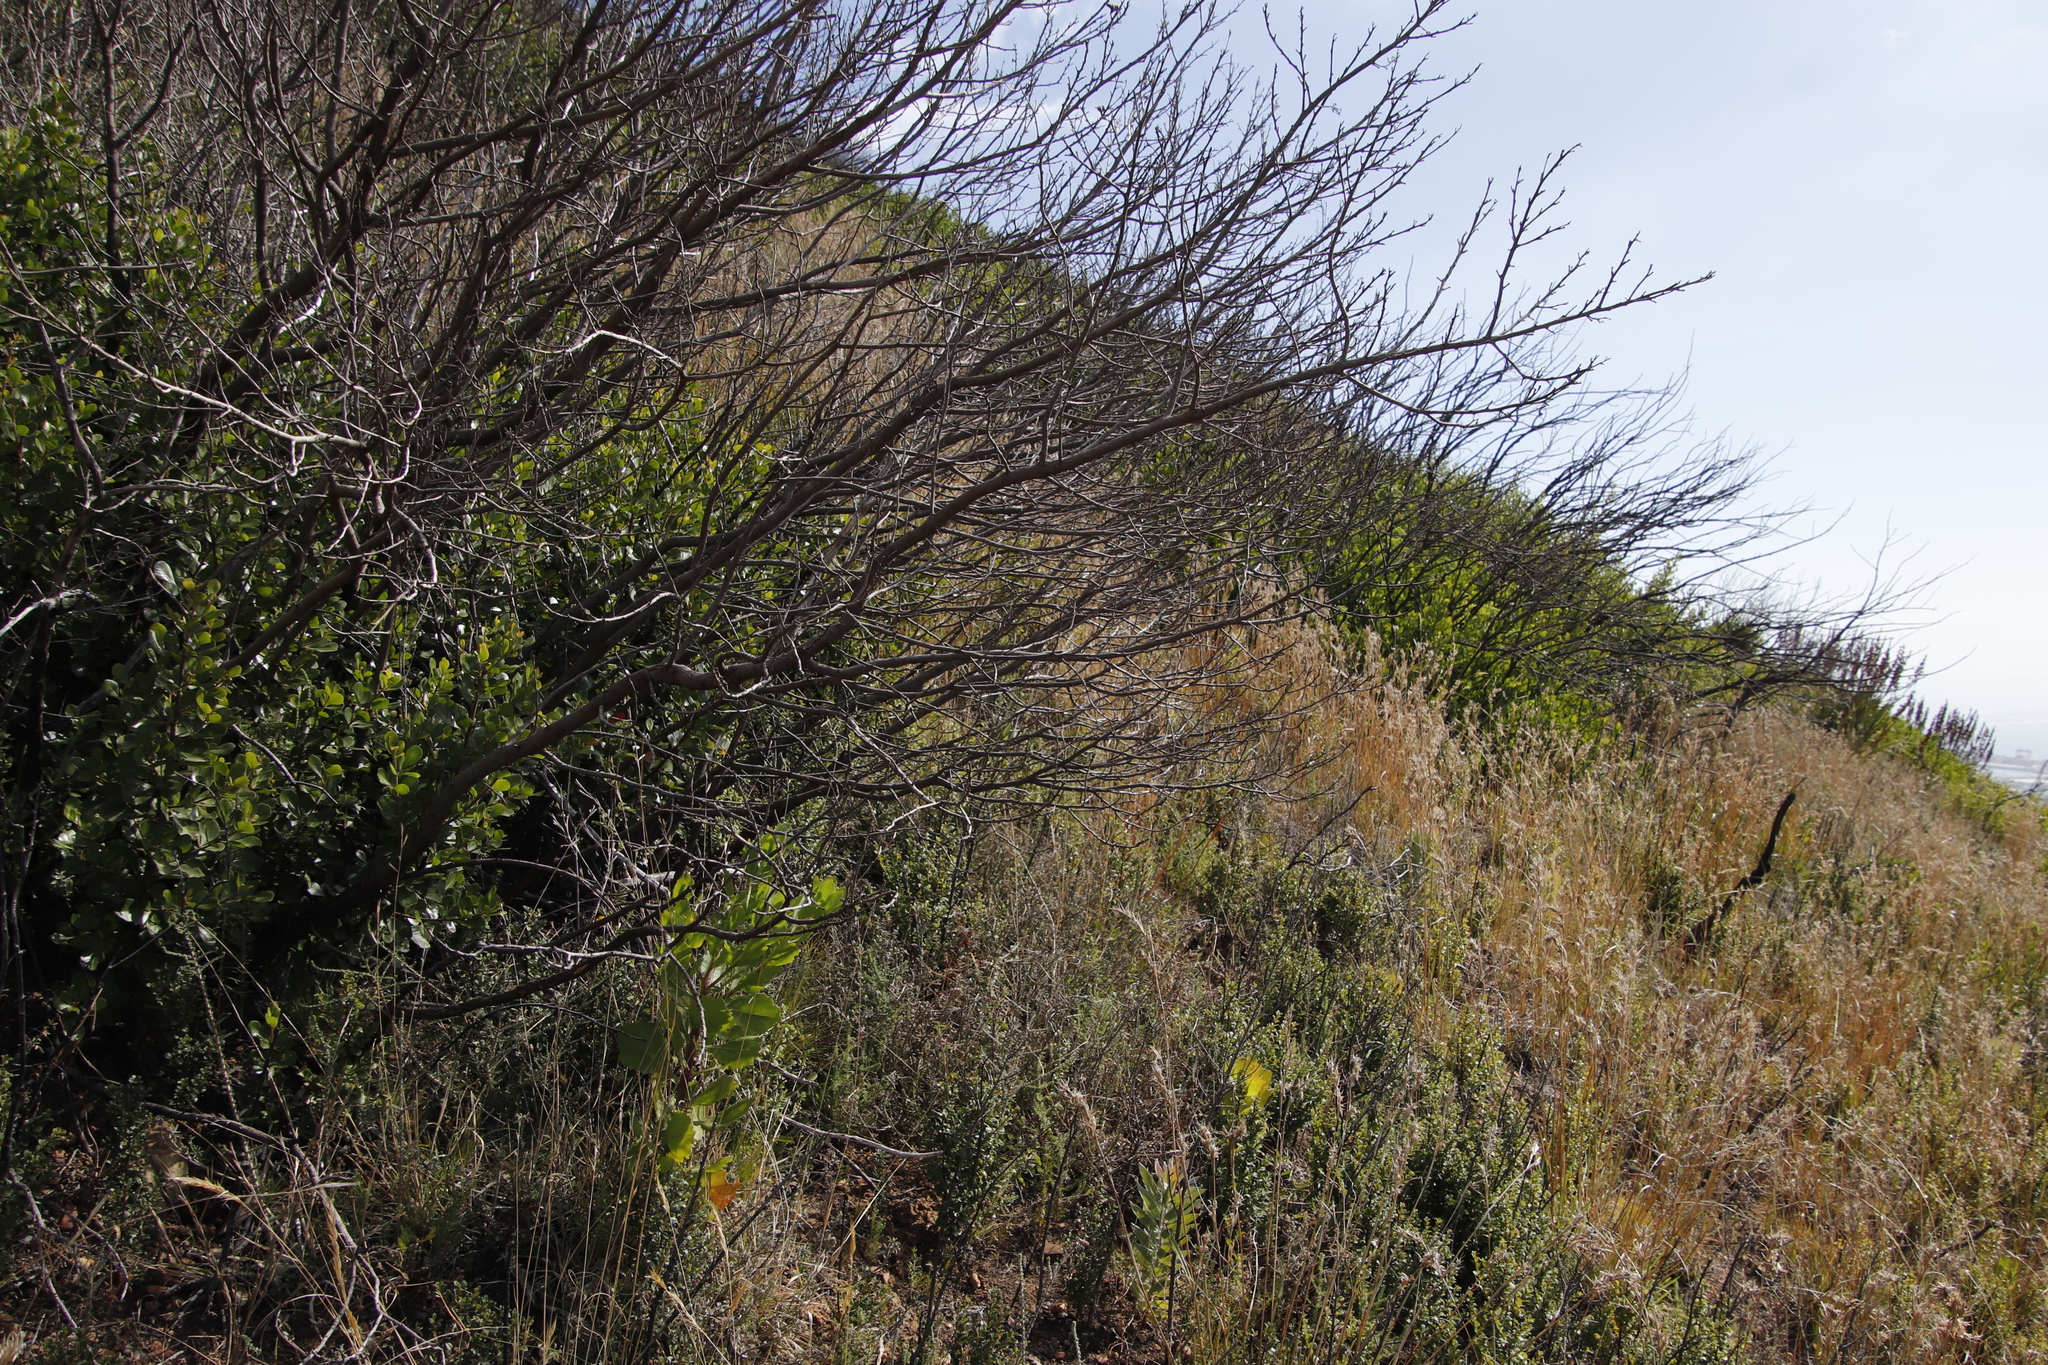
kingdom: Plantae
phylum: Tracheophyta
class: Magnoliopsida
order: Sapindales
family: Anacardiaceae
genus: Searsia
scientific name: Searsia lucida
